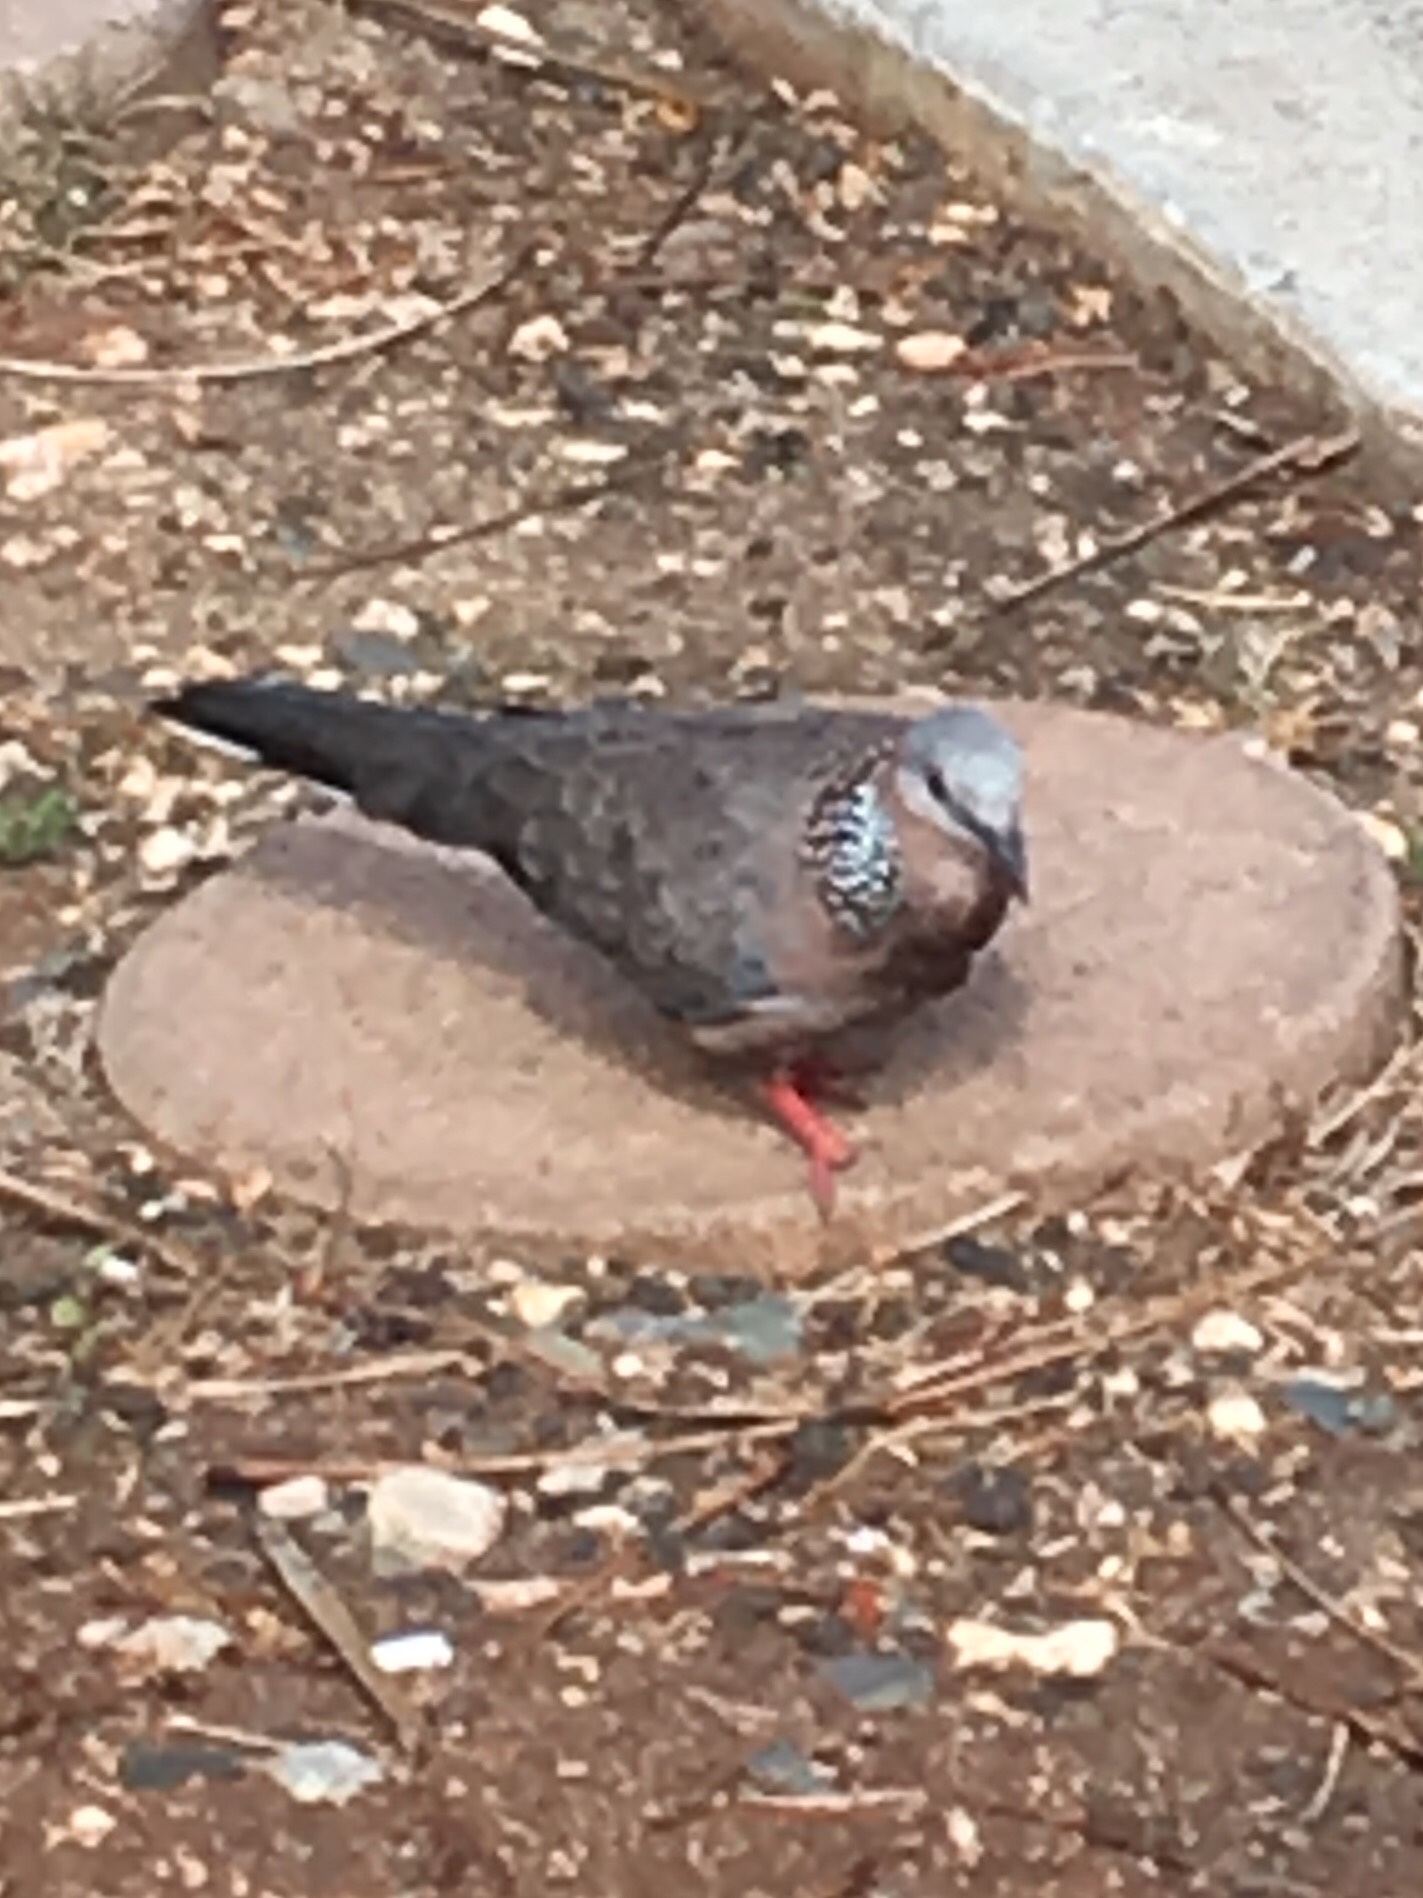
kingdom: Animalia
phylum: Chordata
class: Aves
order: Columbiformes
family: Columbidae
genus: Spilopelia
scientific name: Spilopelia chinensis
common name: Spotted dove
